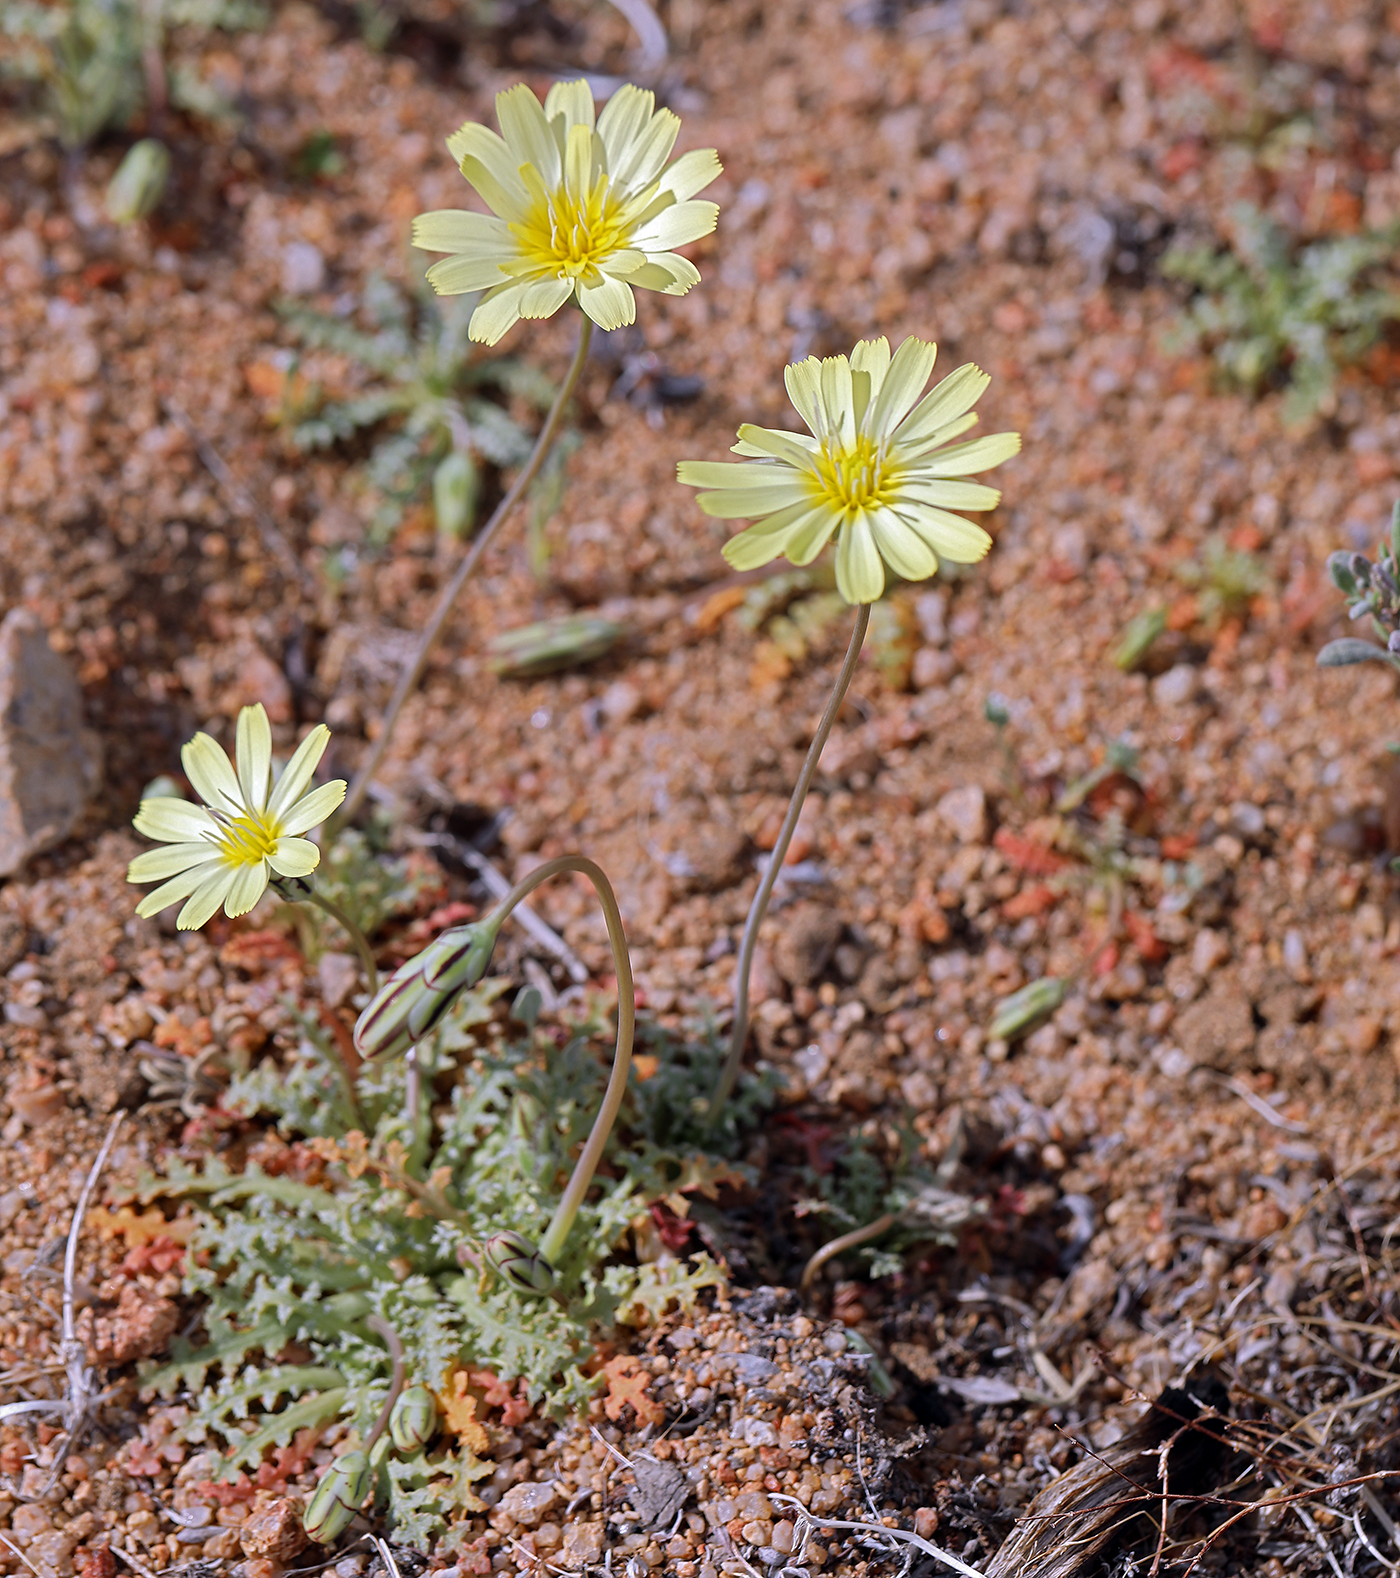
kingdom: Plantae
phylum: Tracheophyta
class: Magnoliopsida
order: Asterales
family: Asteraceae
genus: Anisocoma
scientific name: Anisocoma acaulis
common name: Scalebud
